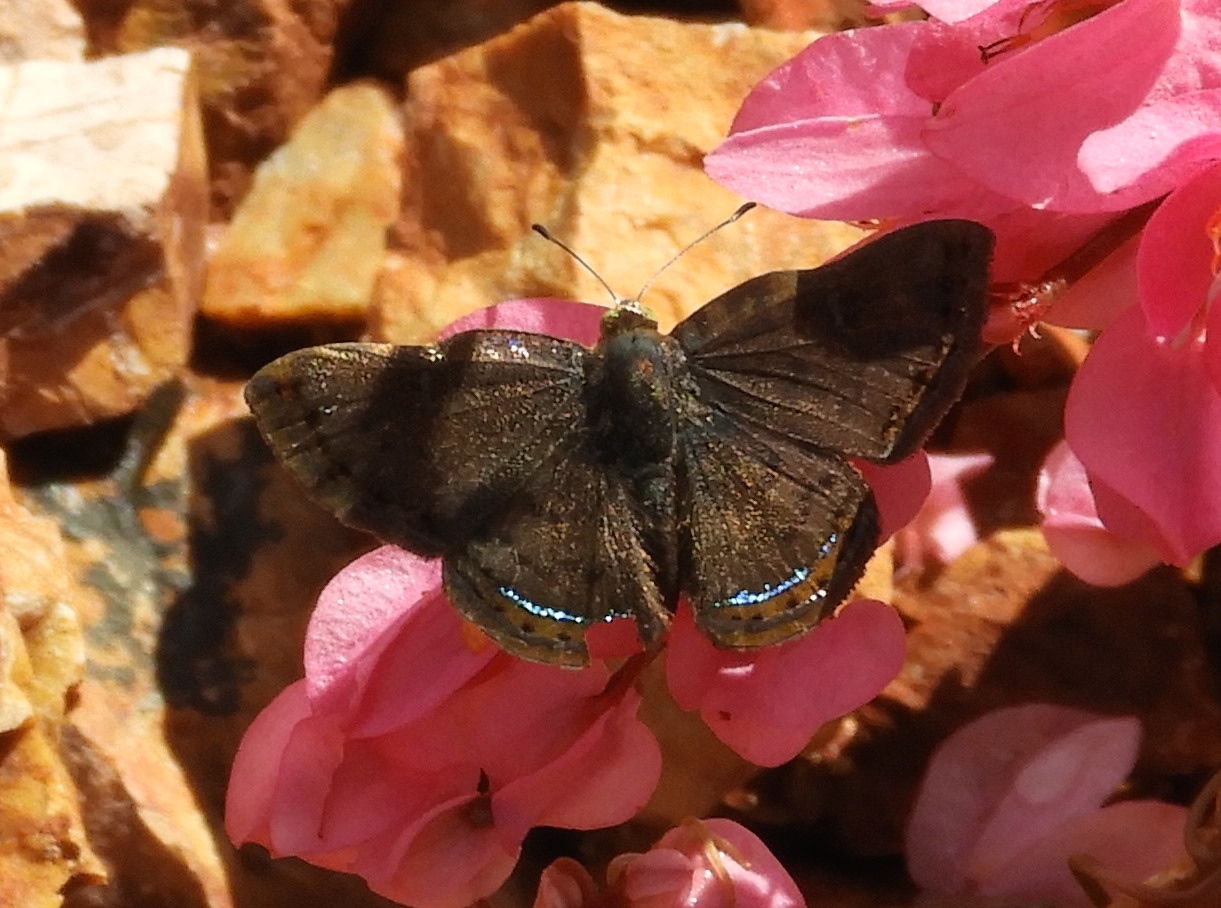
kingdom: Animalia
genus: Caria
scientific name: Caria ino
